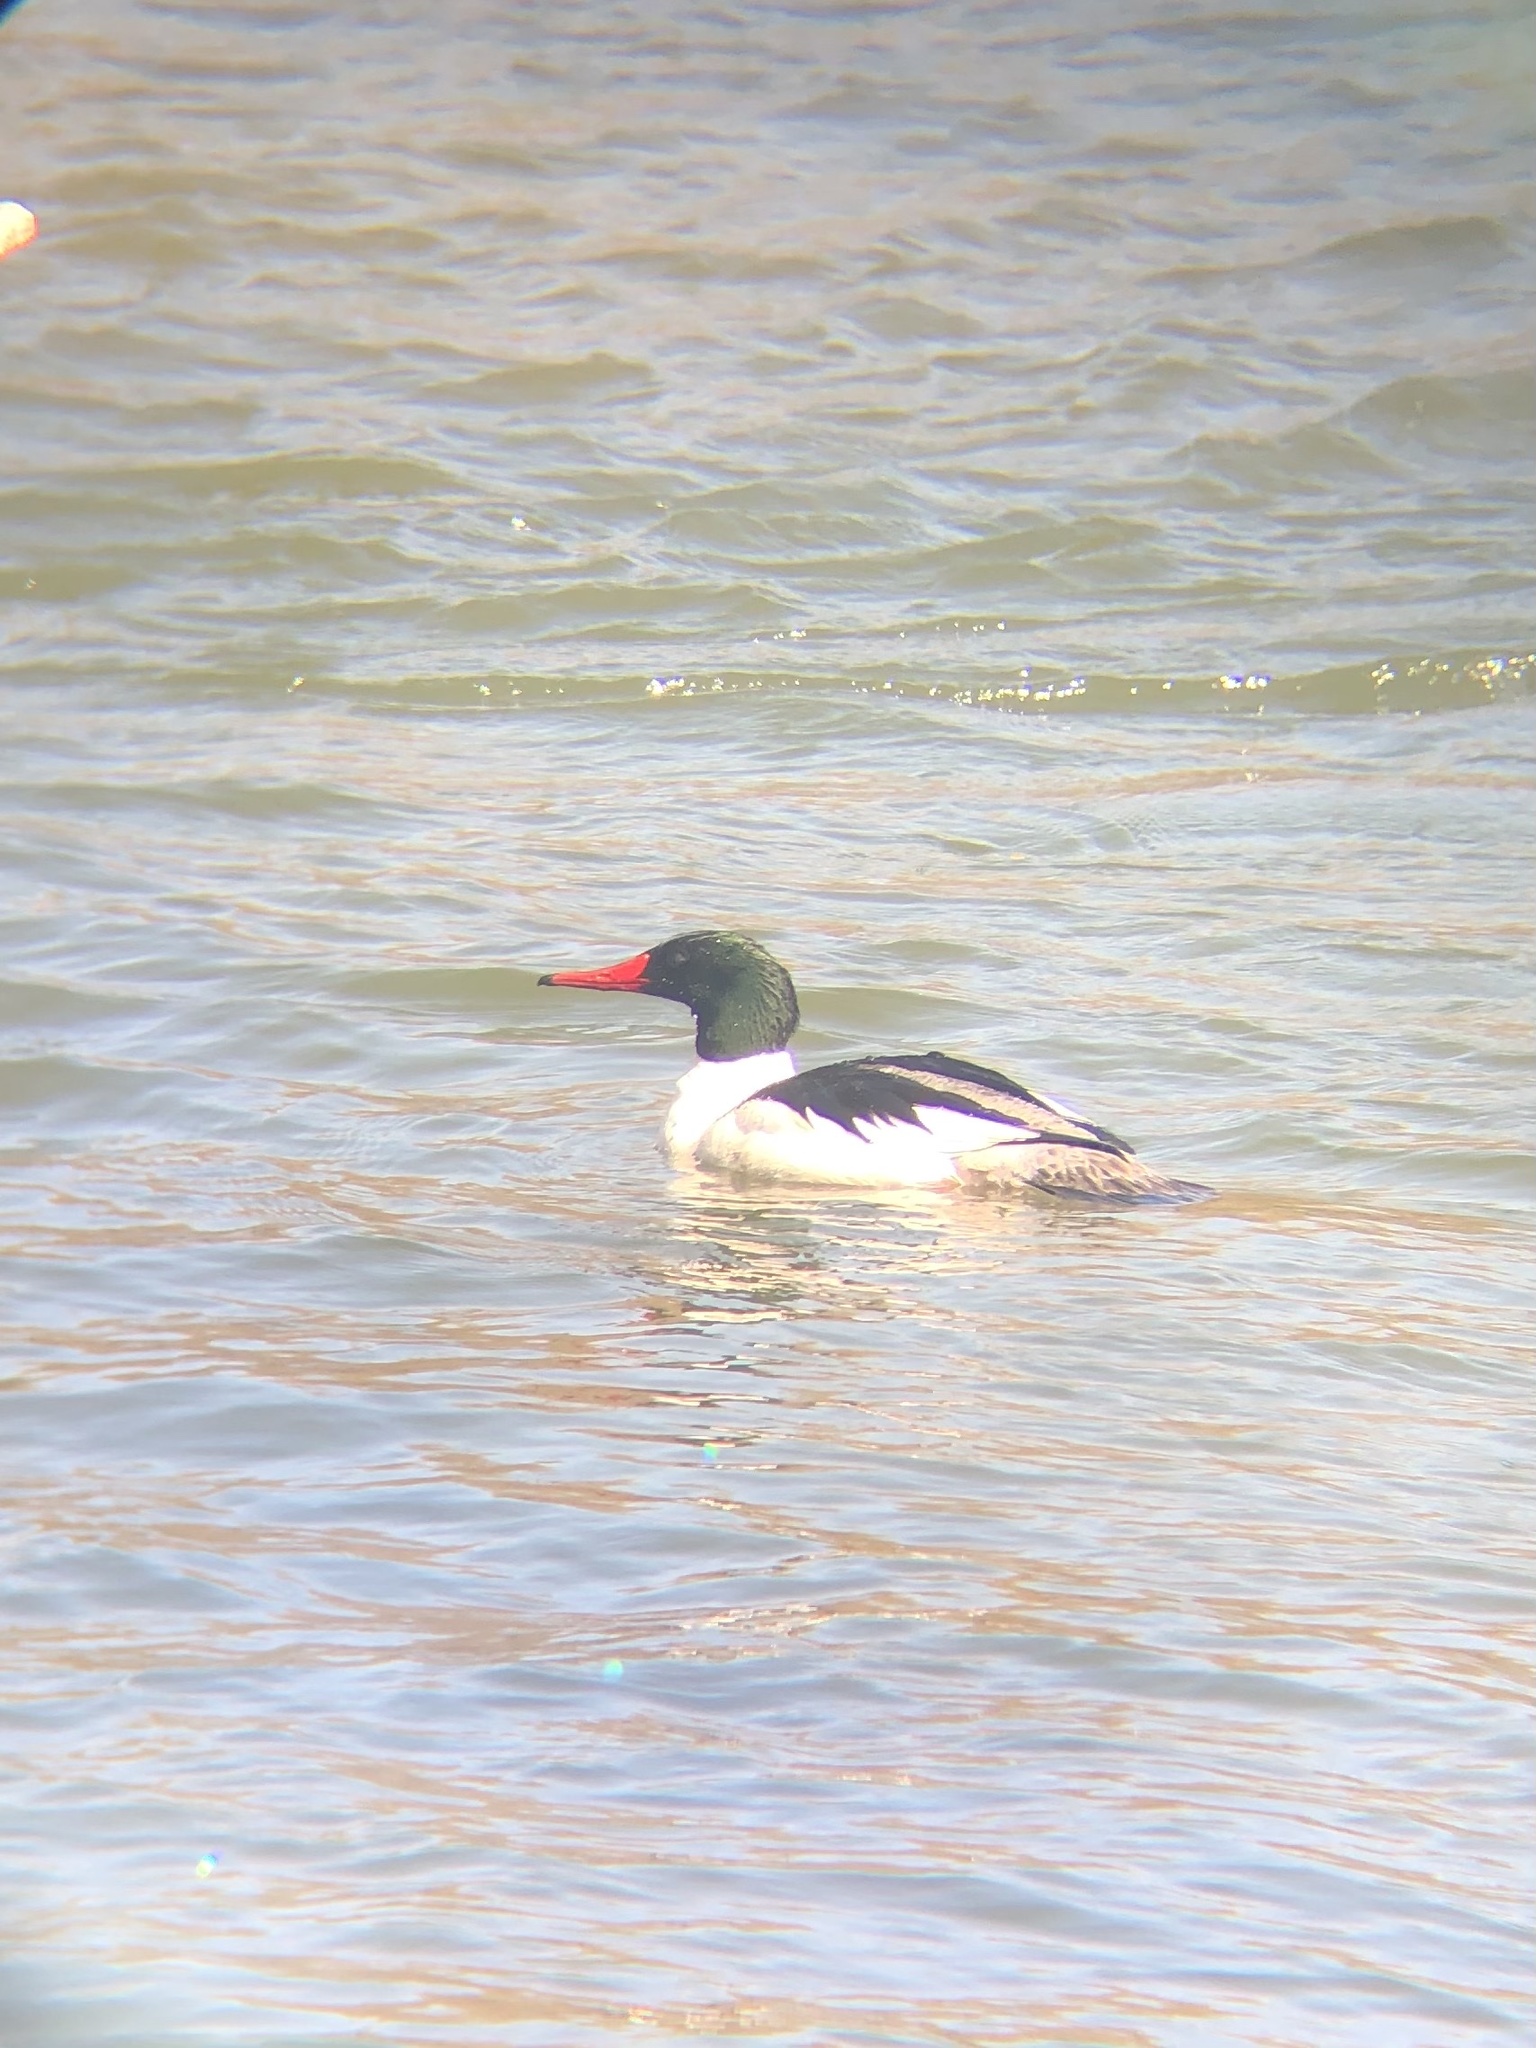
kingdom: Animalia
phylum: Chordata
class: Aves
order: Anseriformes
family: Anatidae
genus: Mergus
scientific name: Mergus merganser
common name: Common merganser
